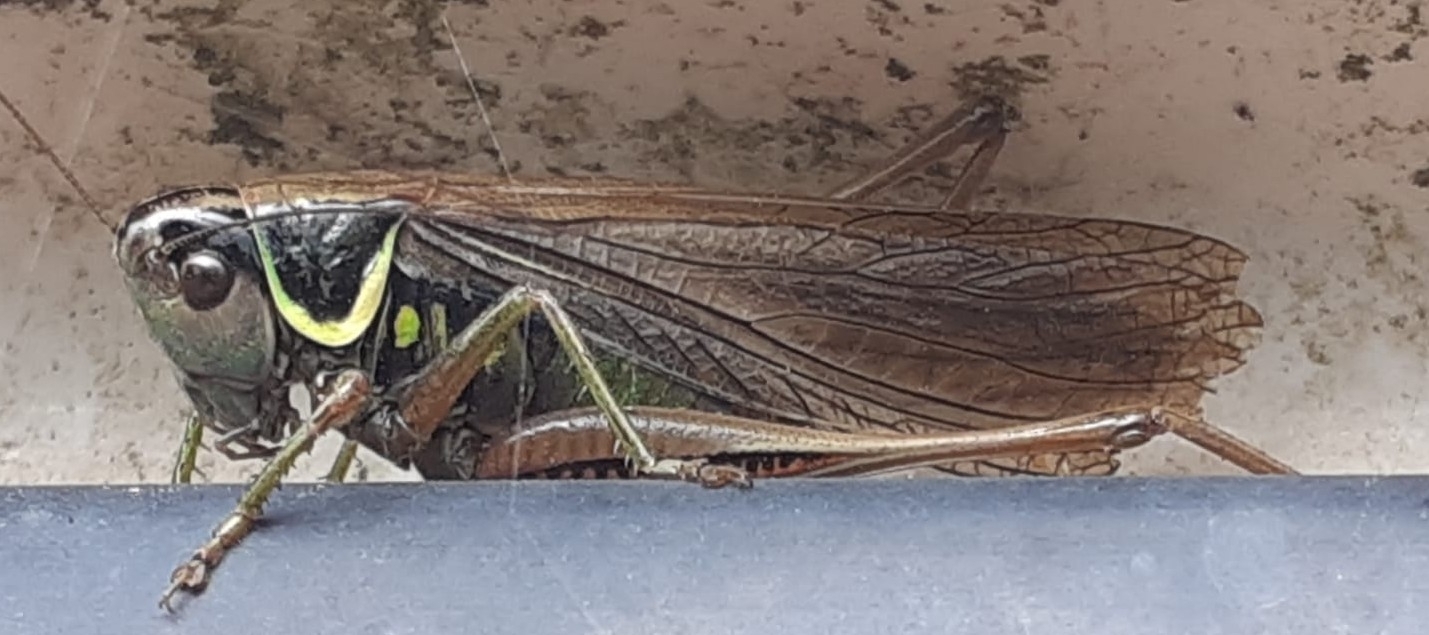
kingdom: Animalia
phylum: Arthropoda
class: Insecta
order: Orthoptera
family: Tettigoniidae
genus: Roeseliana
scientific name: Roeseliana roeselii
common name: Roesel's bush cricket
